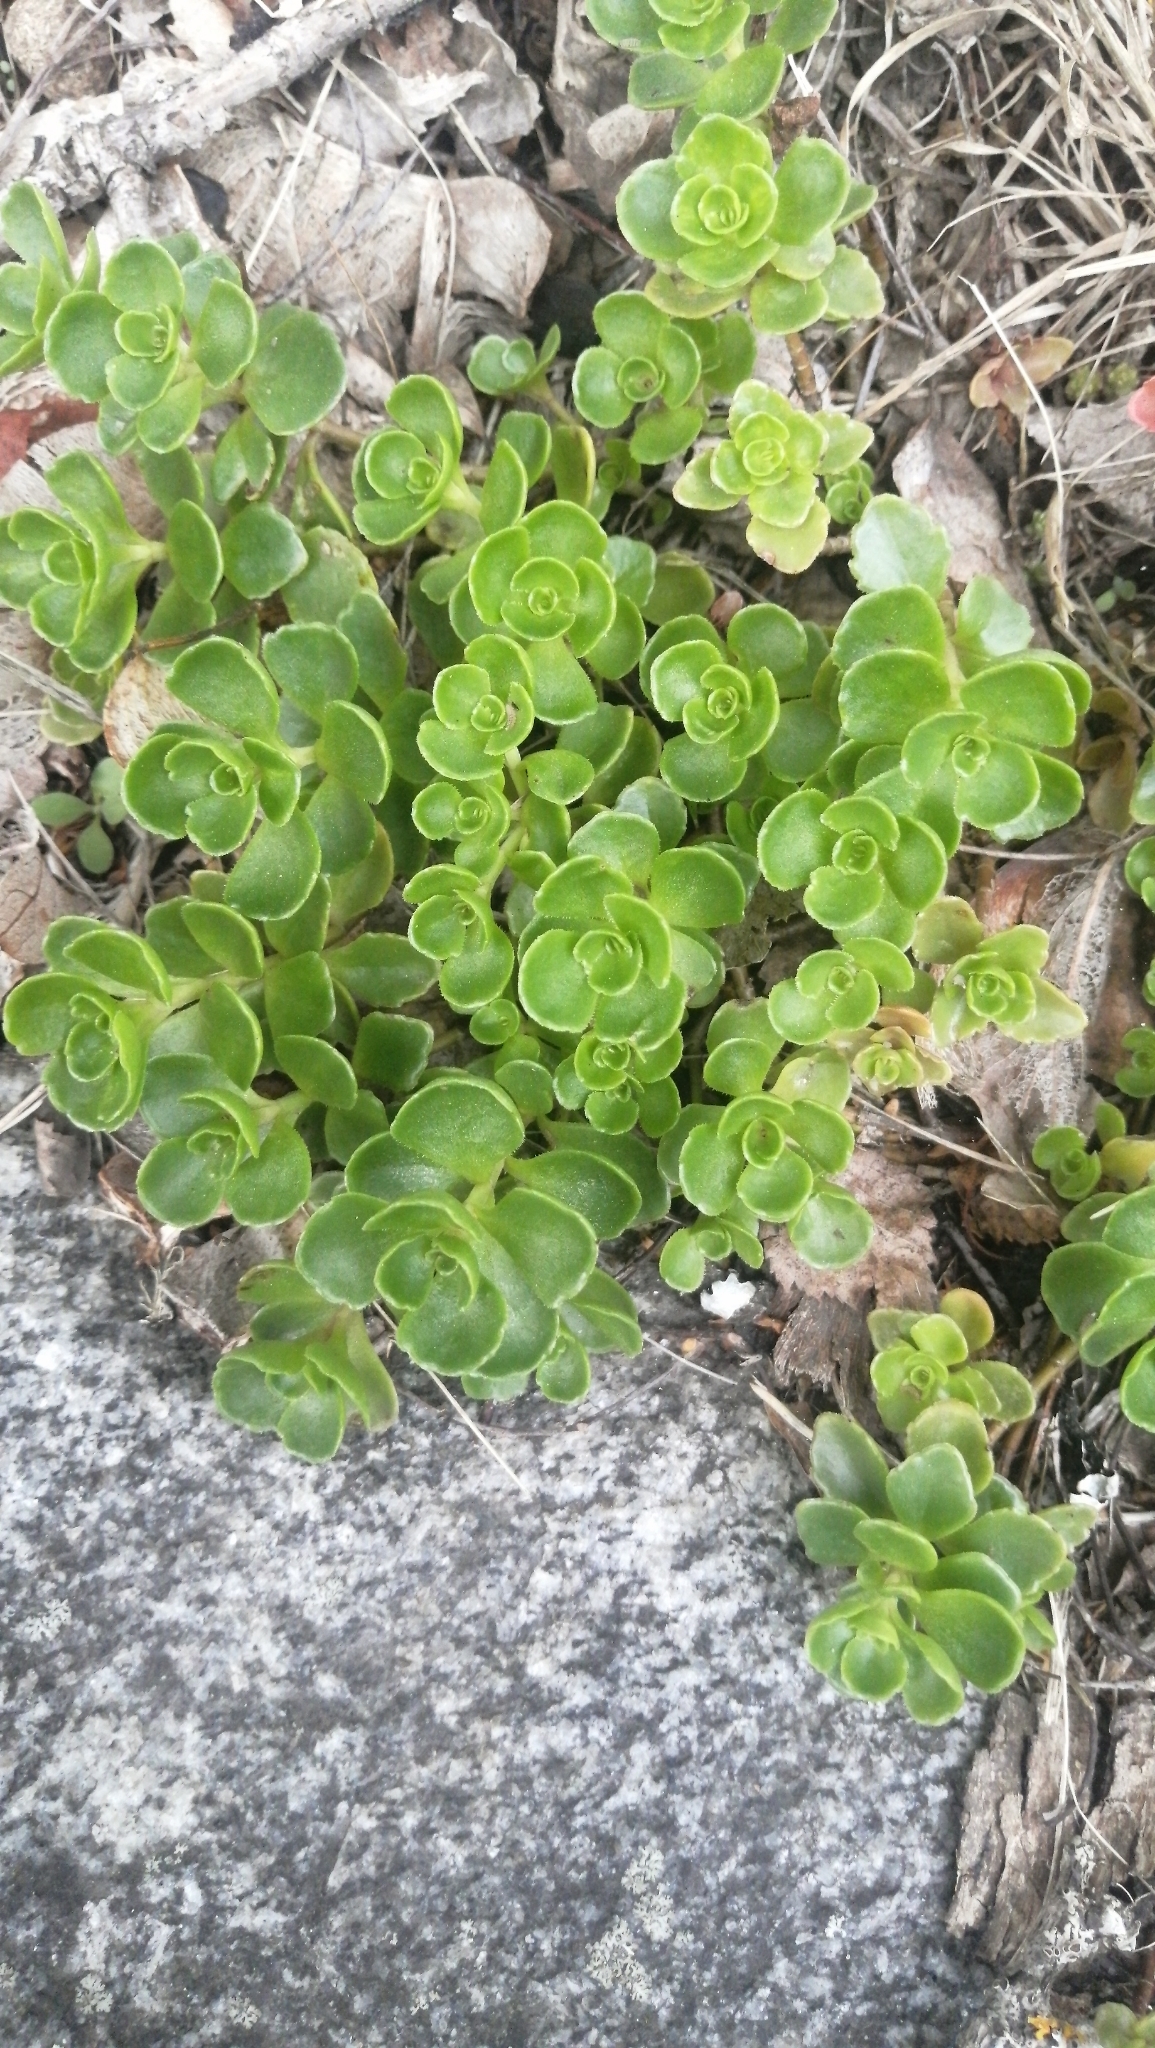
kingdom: Plantae
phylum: Tracheophyta
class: Magnoliopsida
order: Saxifragales
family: Crassulaceae
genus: Phedimus
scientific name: Phedimus spurius
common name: Caucasian stonecrop
